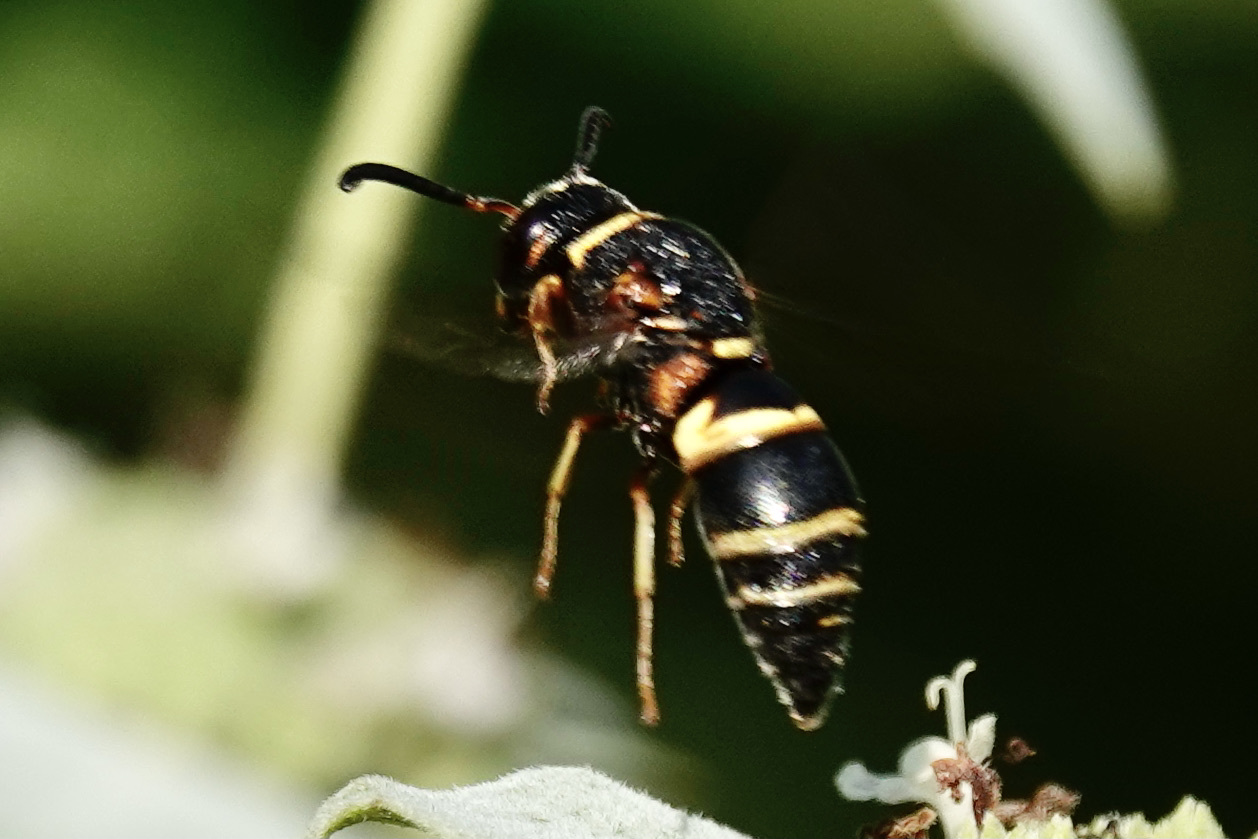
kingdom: Animalia
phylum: Arthropoda
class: Insecta
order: Hymenoptera
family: Eumenidae
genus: Euodynerus
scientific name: Euodynerus hidalgo
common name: Wasp
